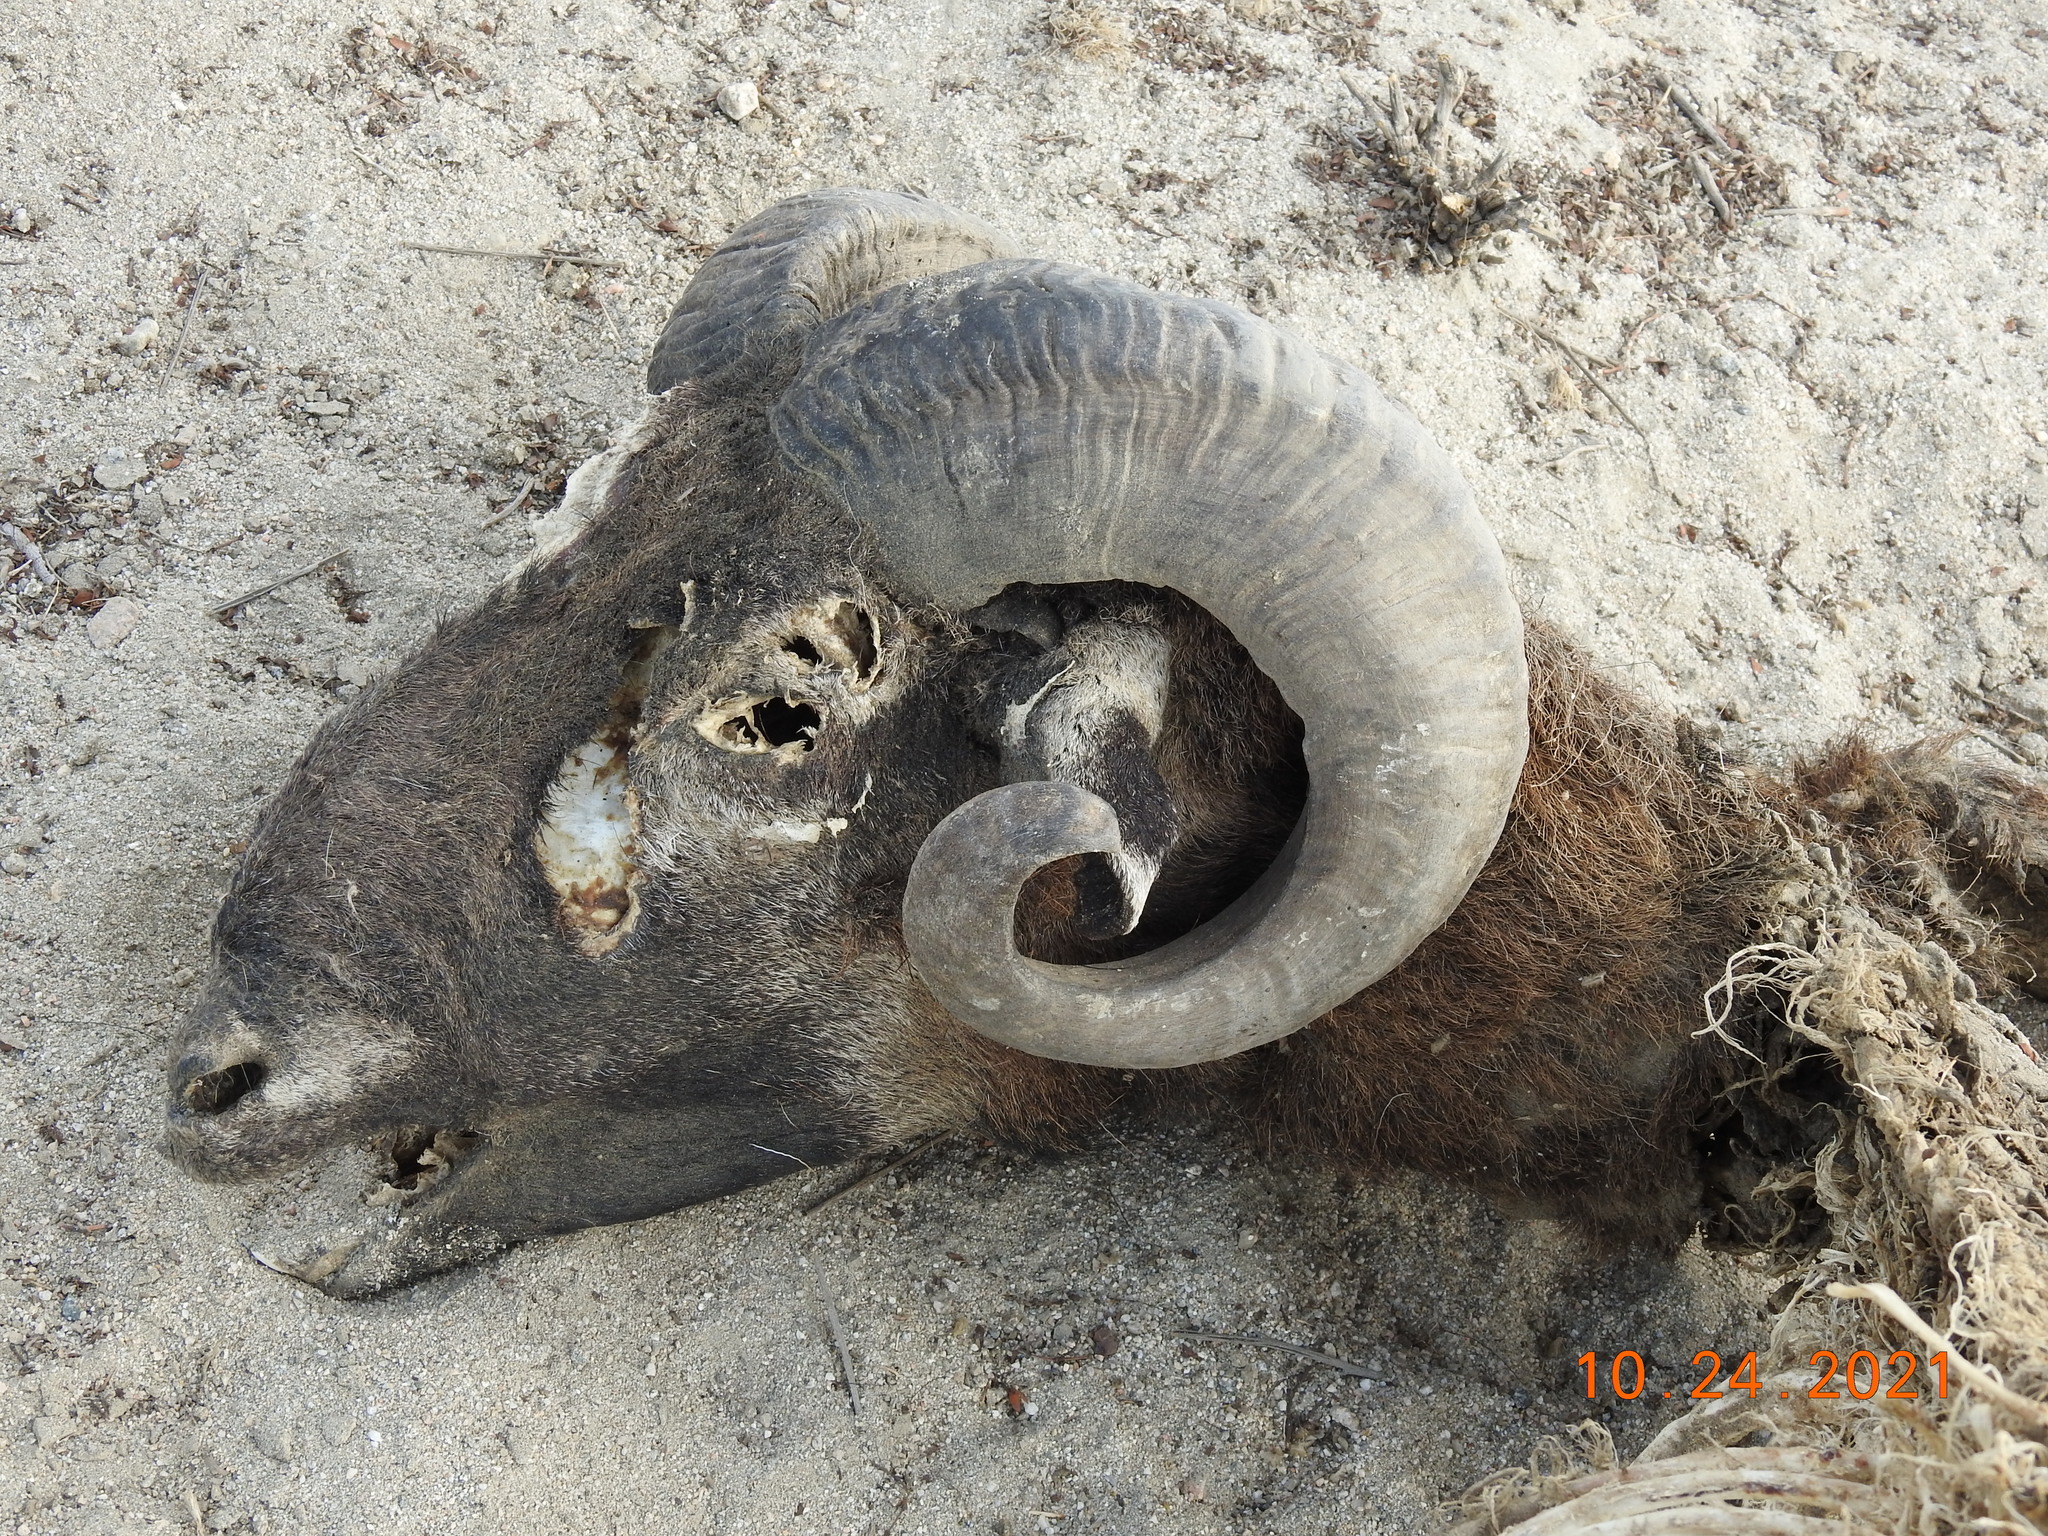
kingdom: Animalia
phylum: Chordata
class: Mammalia
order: Artiodactyla
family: Bovidae
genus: Ovis
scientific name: Ovis aries
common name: Domestic sheep
